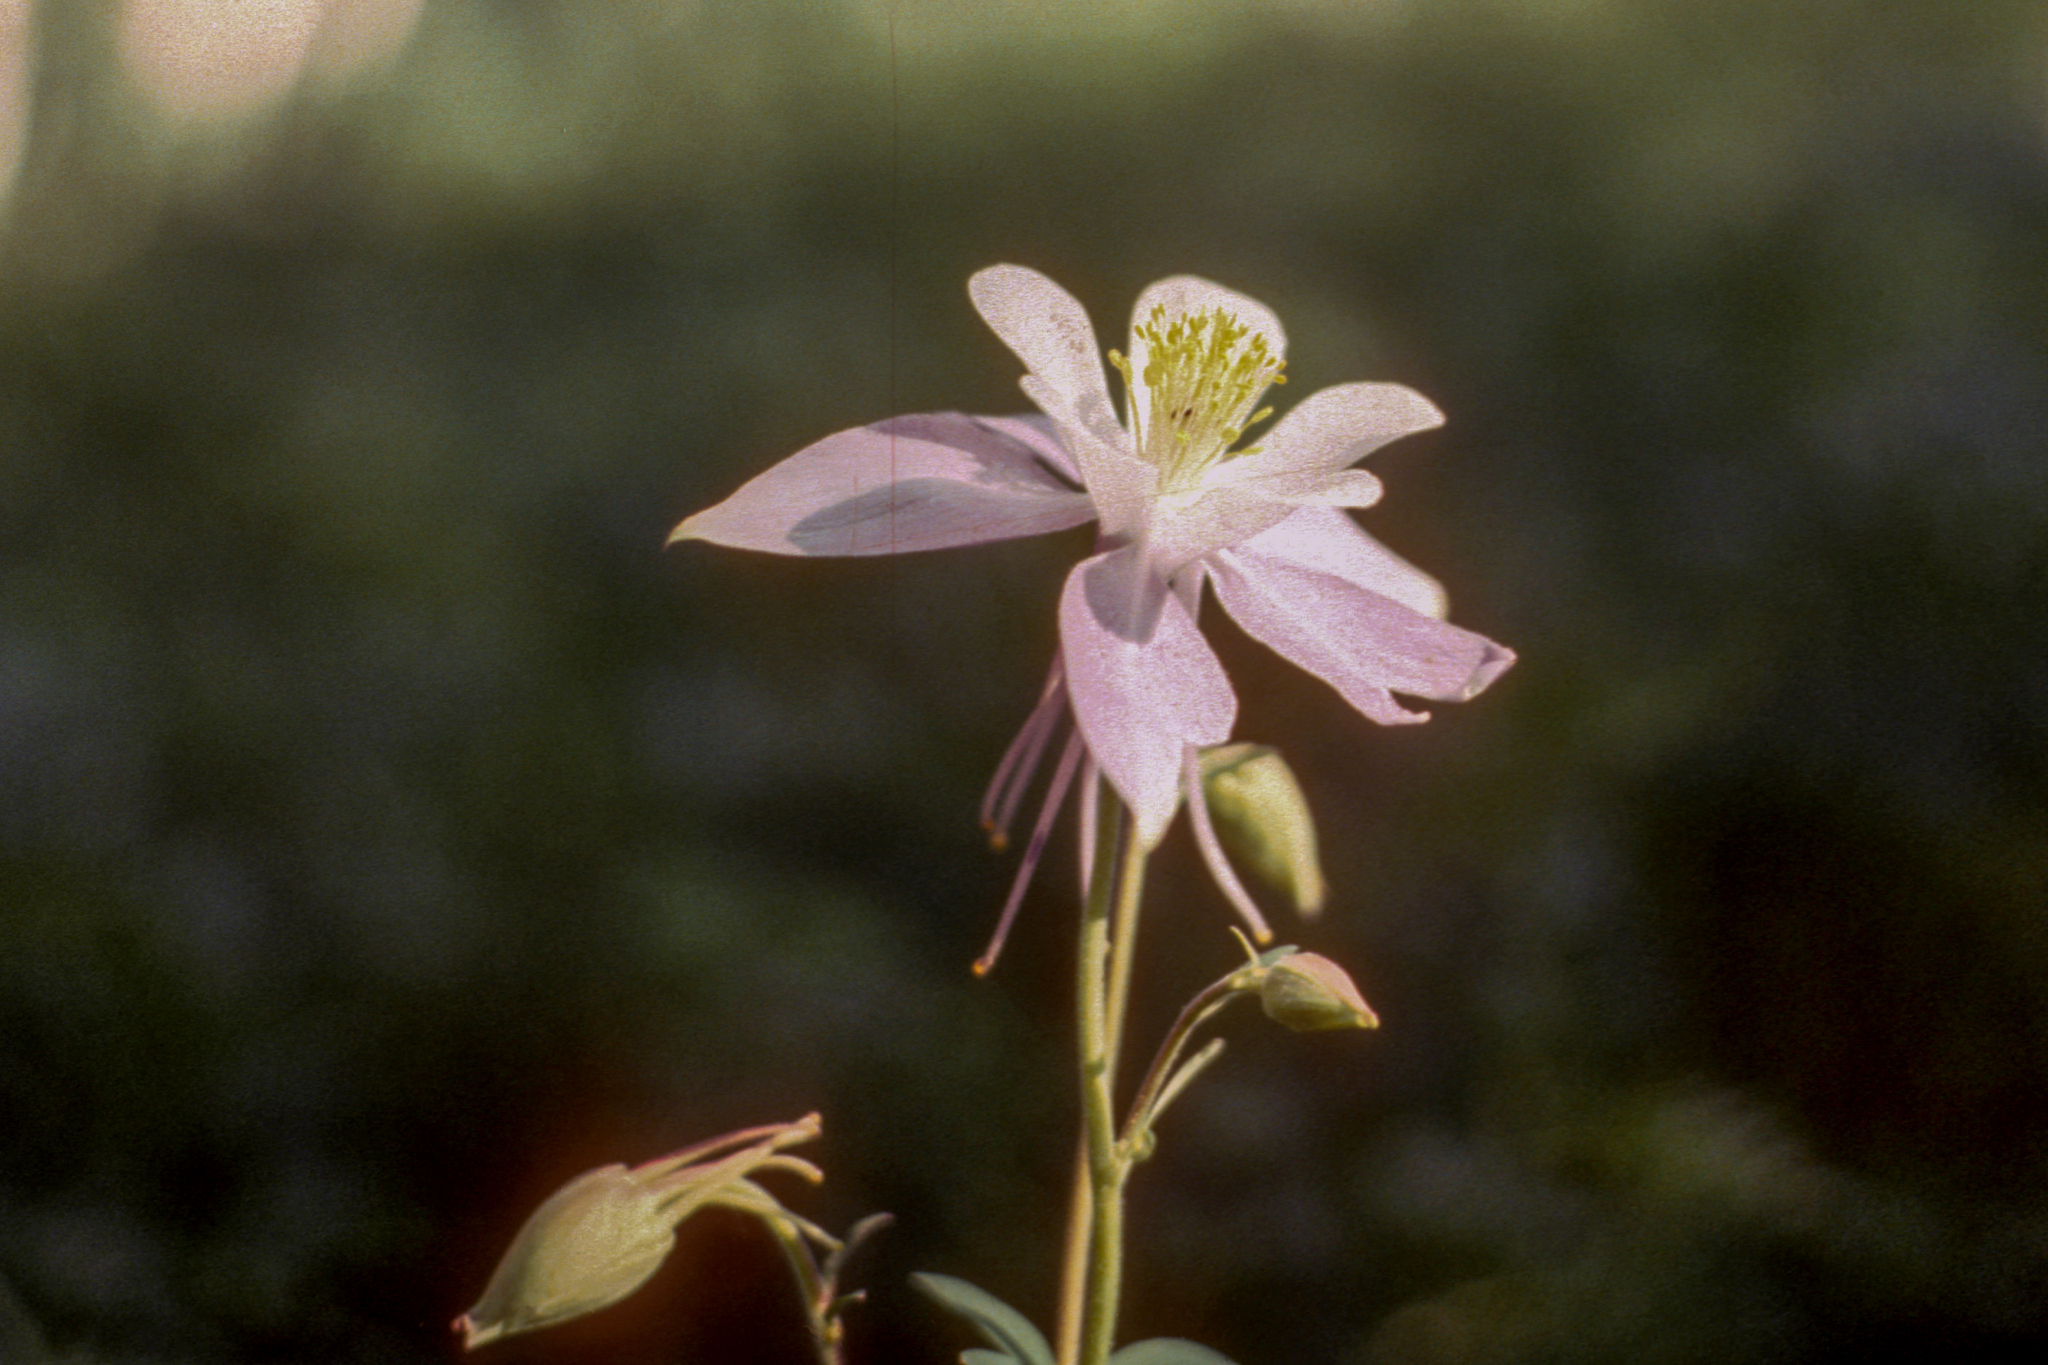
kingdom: Plantae
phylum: Tracheophyta
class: Magnoliopsida
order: Ranunculales
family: Ranunculaceae
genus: Aquilegia
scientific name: Aquilegia coerulea
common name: Rocky mountain columbine
